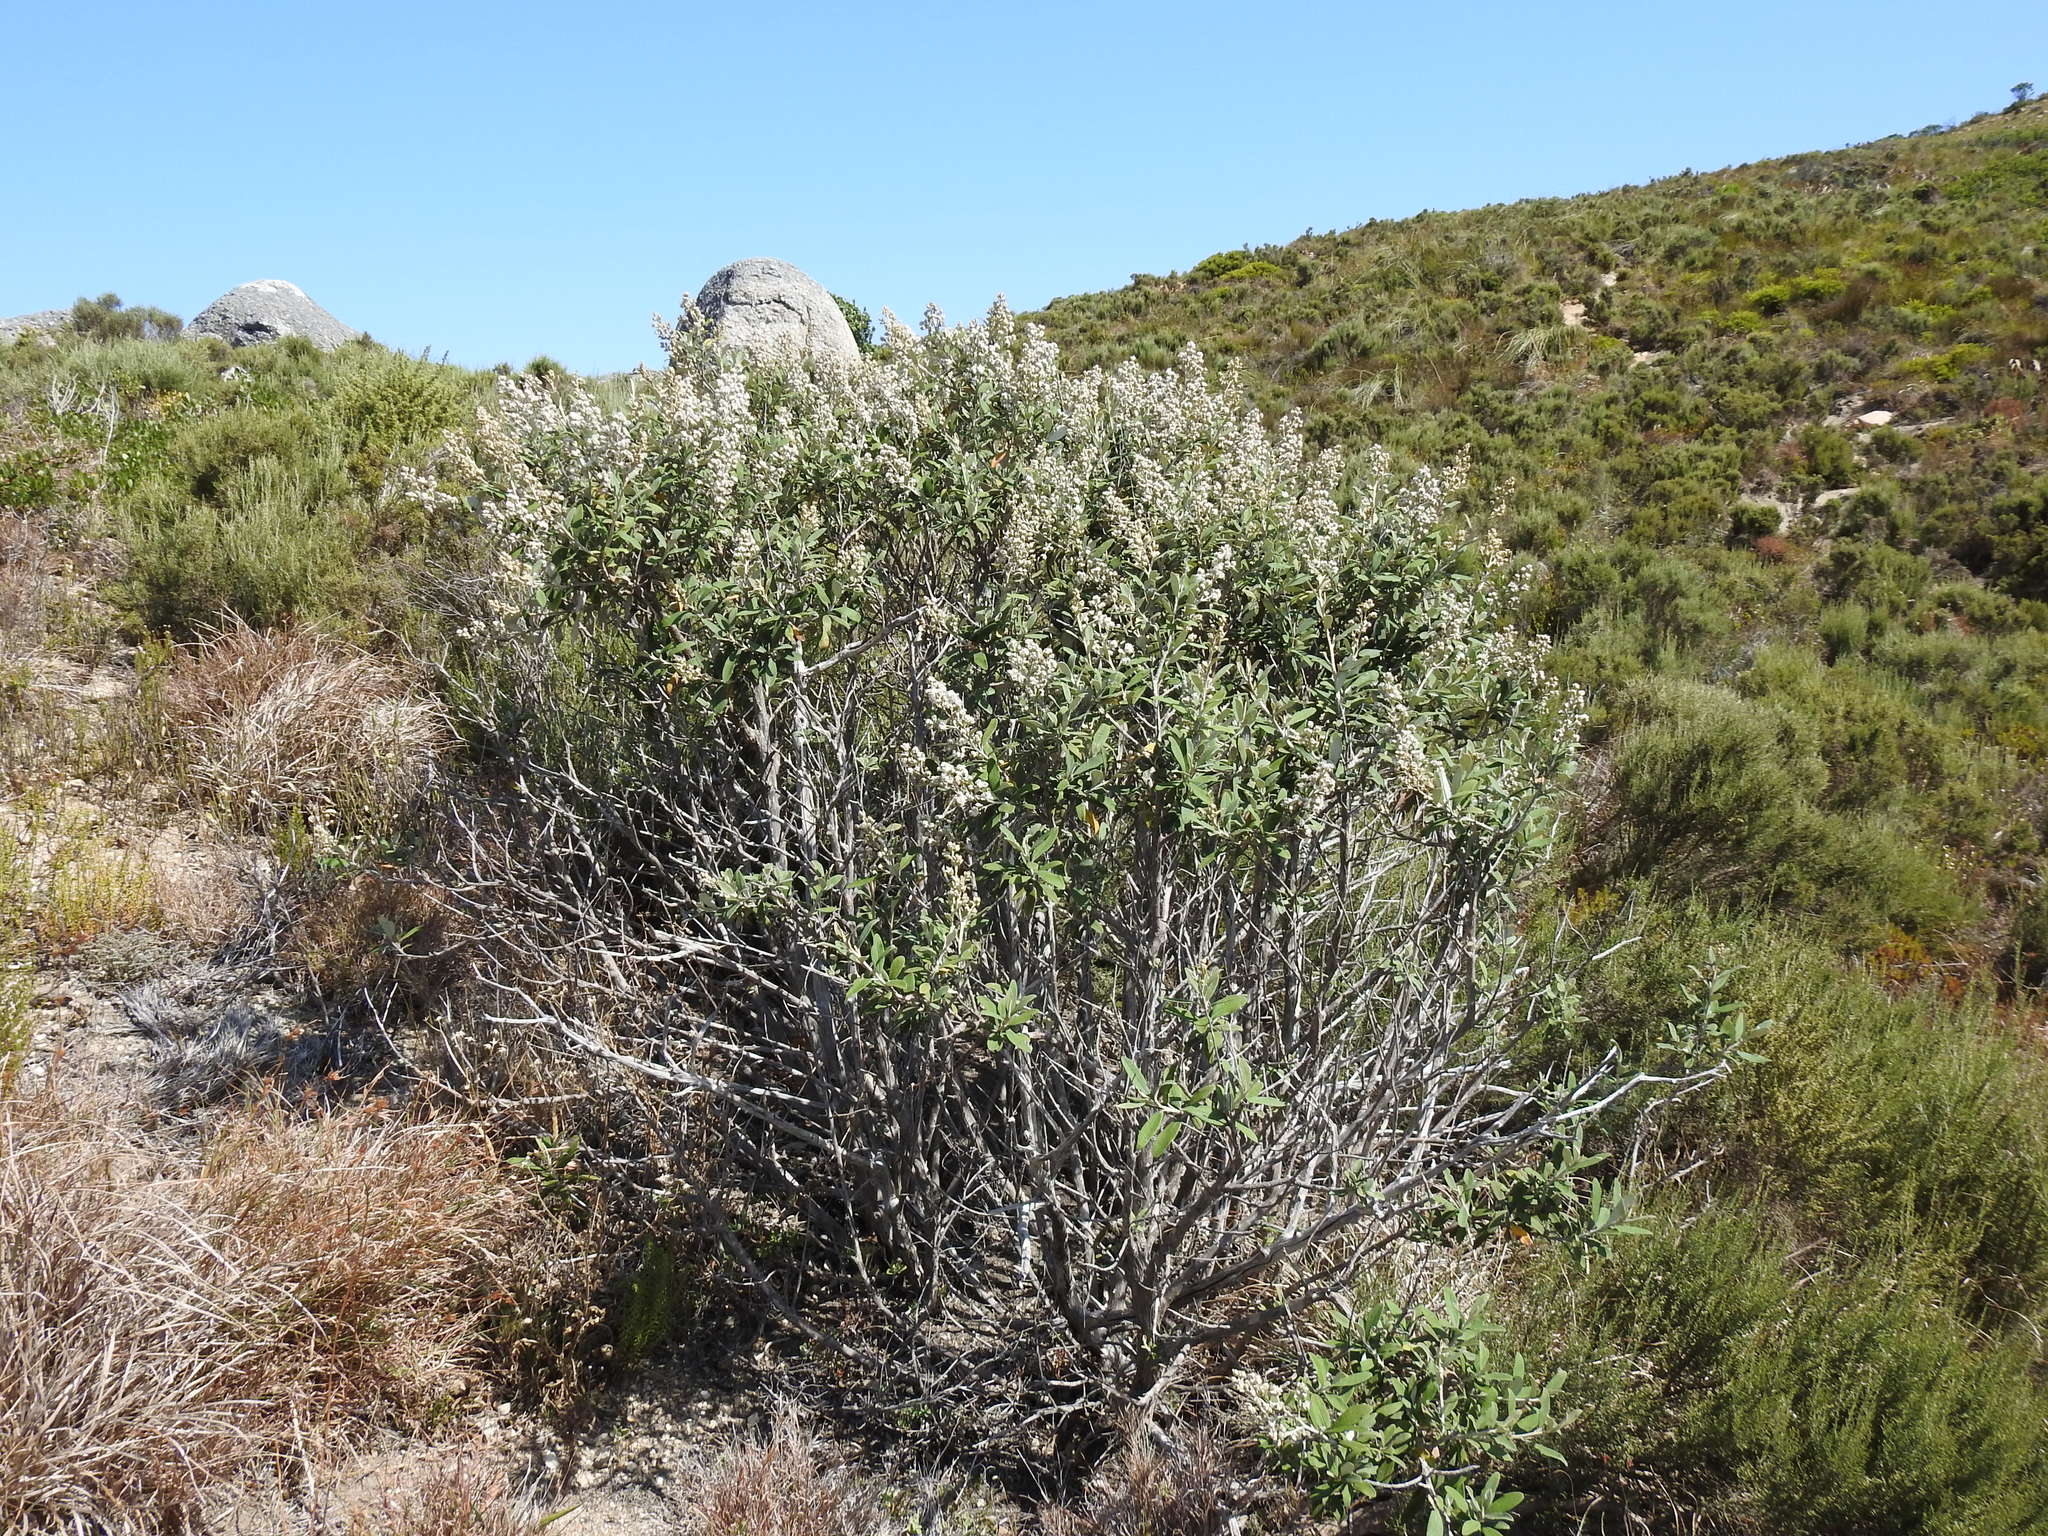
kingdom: Plantae
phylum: Tracheophyta
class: Magnoliopsida
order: Asterales
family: Asteraceae
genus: Tarchonanthus
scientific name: Tarchonanthus littoralis
